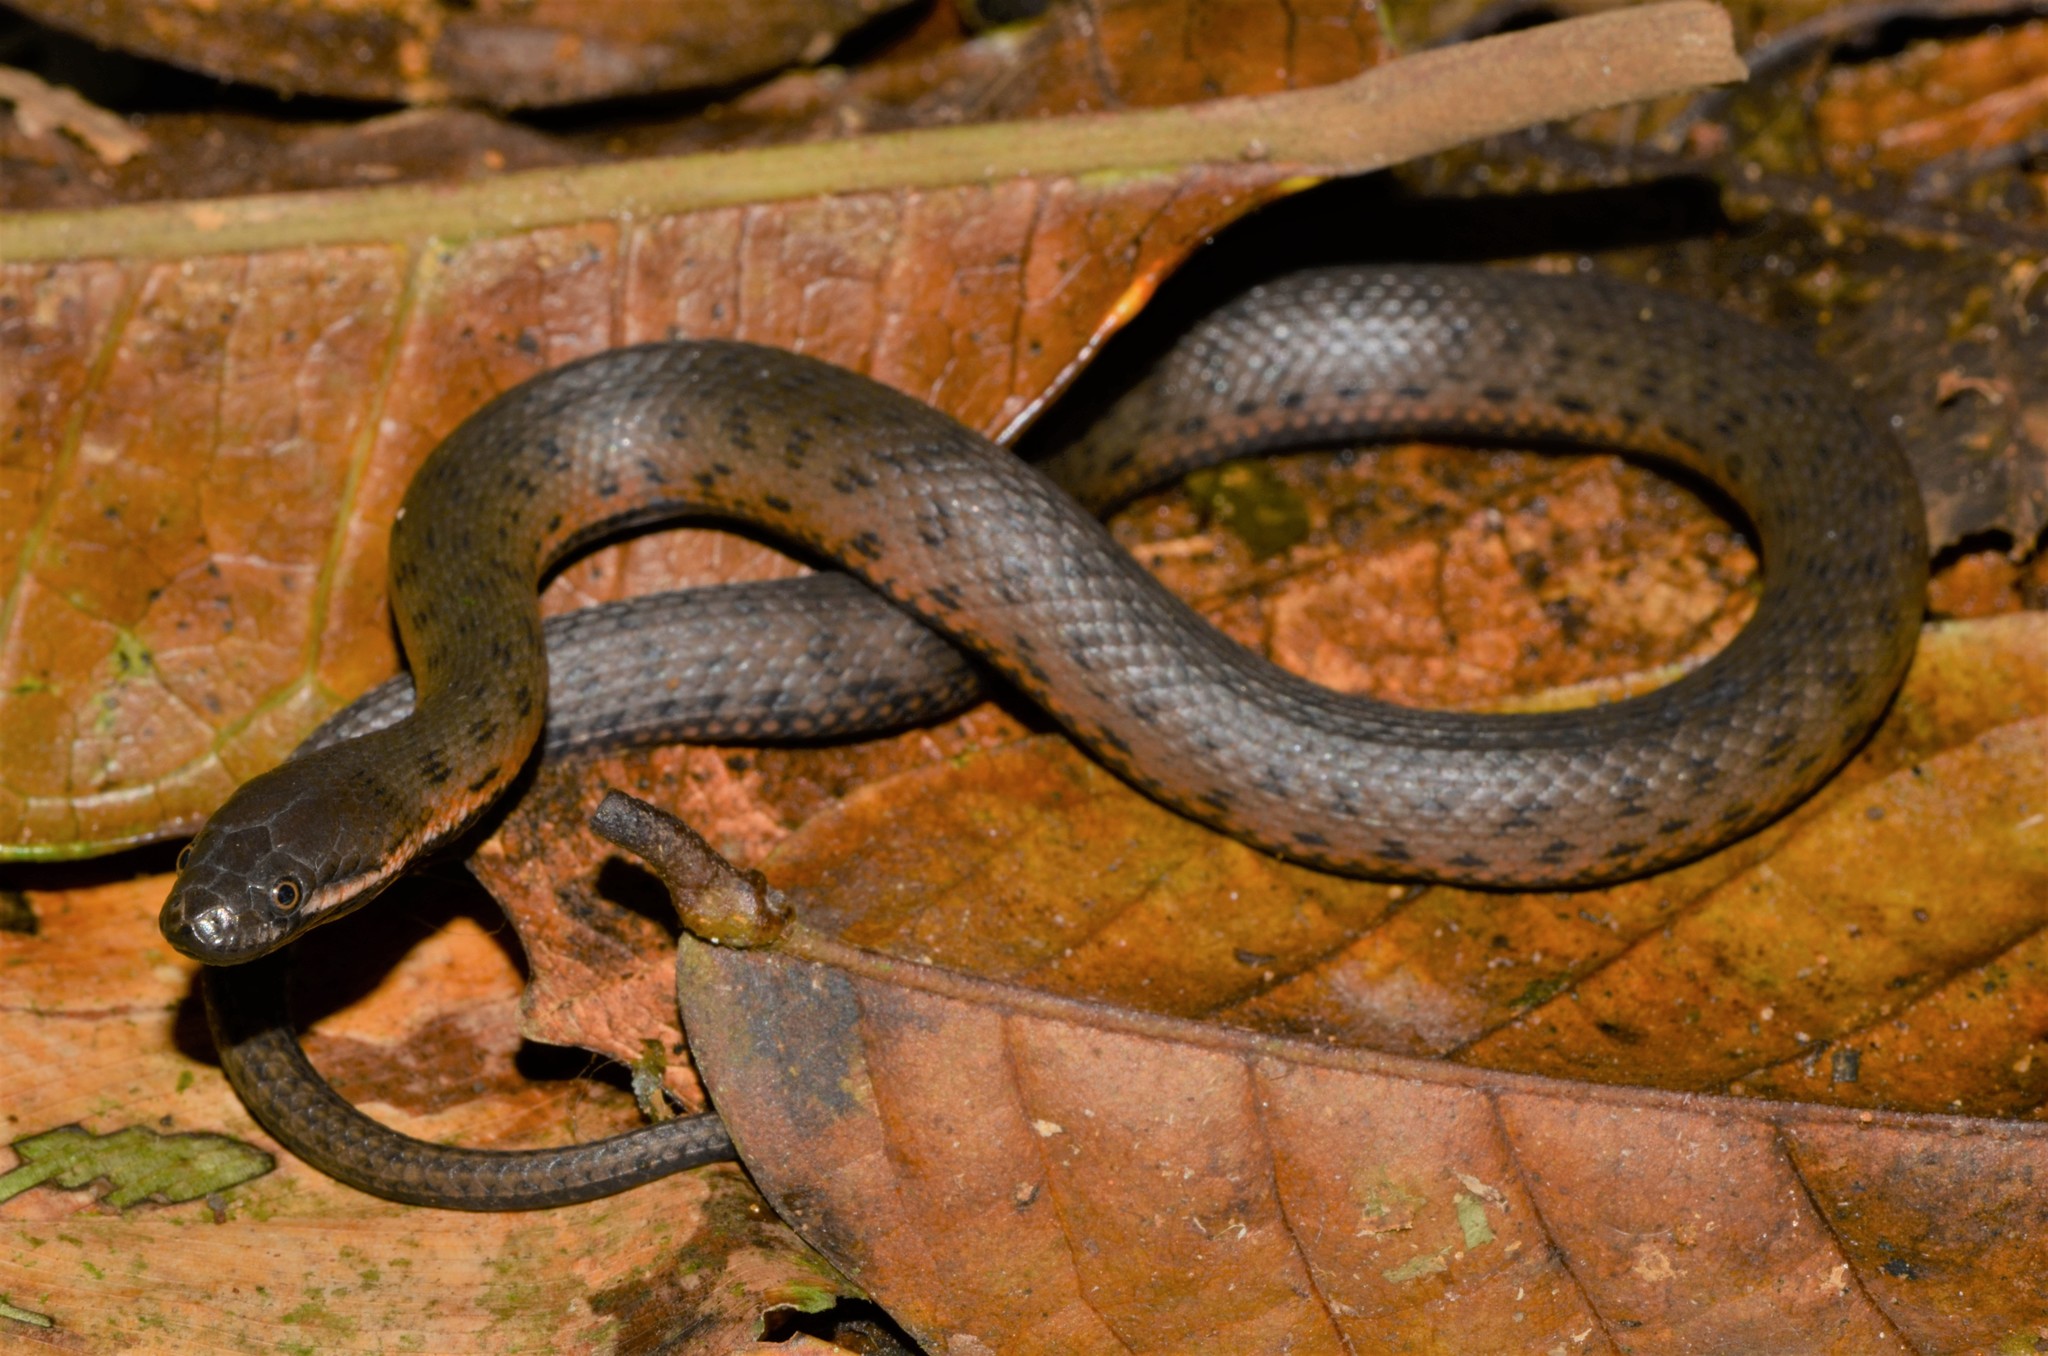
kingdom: Animalia
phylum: Chordata
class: Squamata
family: Colubridae
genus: Hydraethiops
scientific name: Hydraethiops melanogaster
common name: Blackbelly snake
